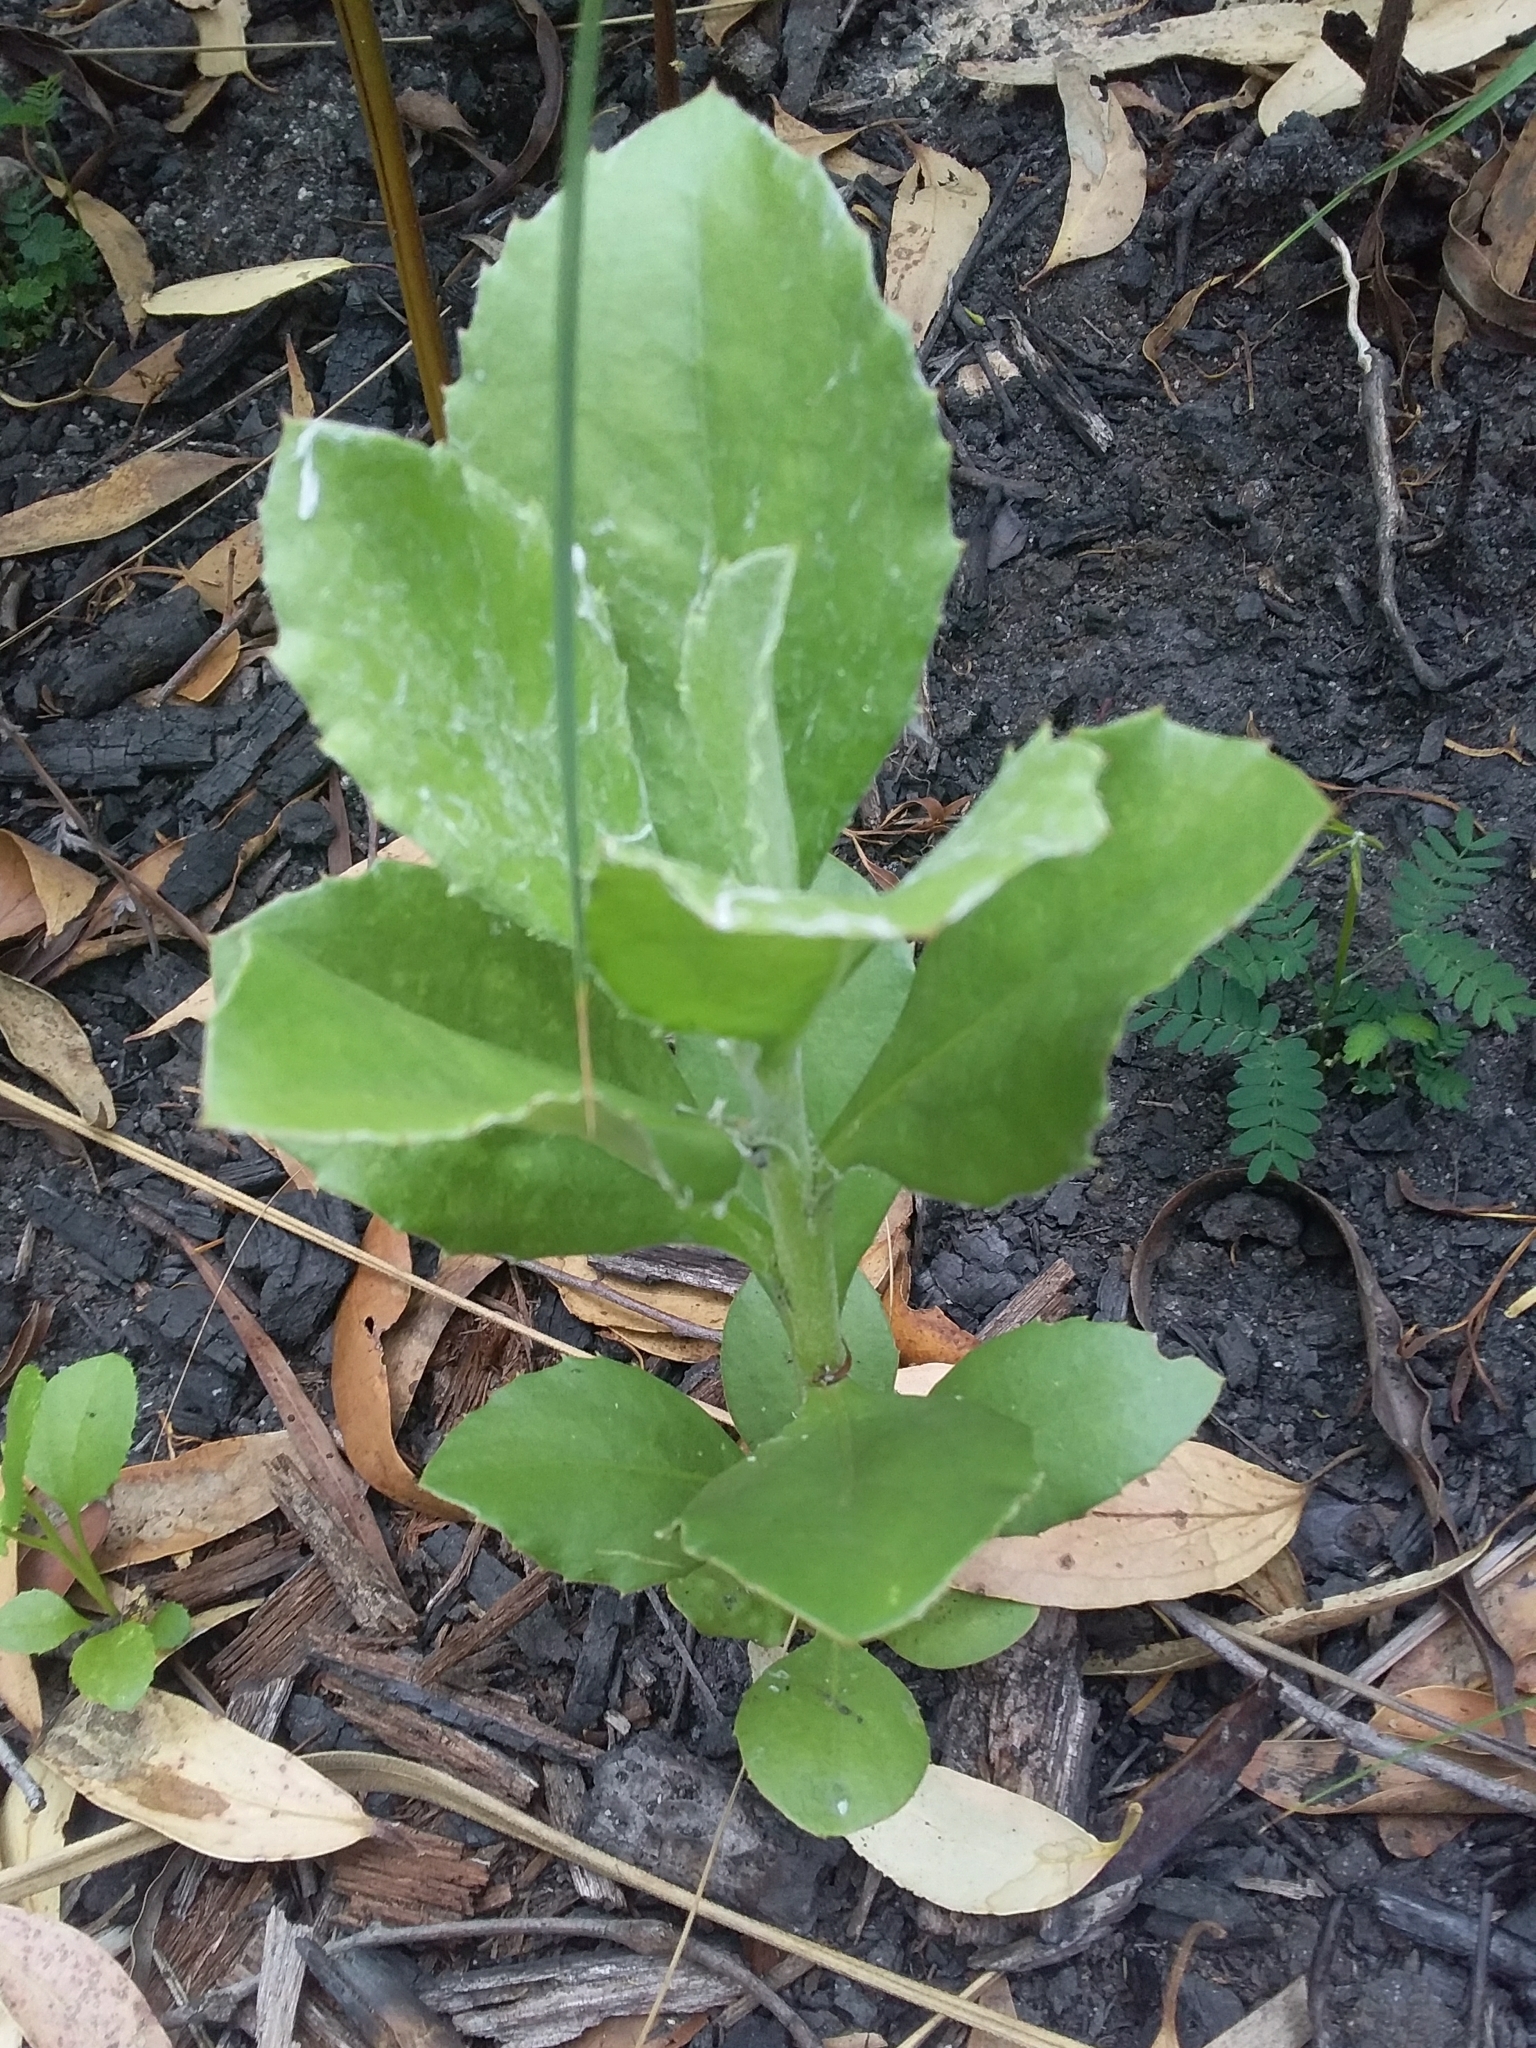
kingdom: Plantae
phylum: Tracheophyta
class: Magnoliopsida
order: Asterales
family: Asteraceae
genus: Osteospermum
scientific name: Osteospermum moniliferum
